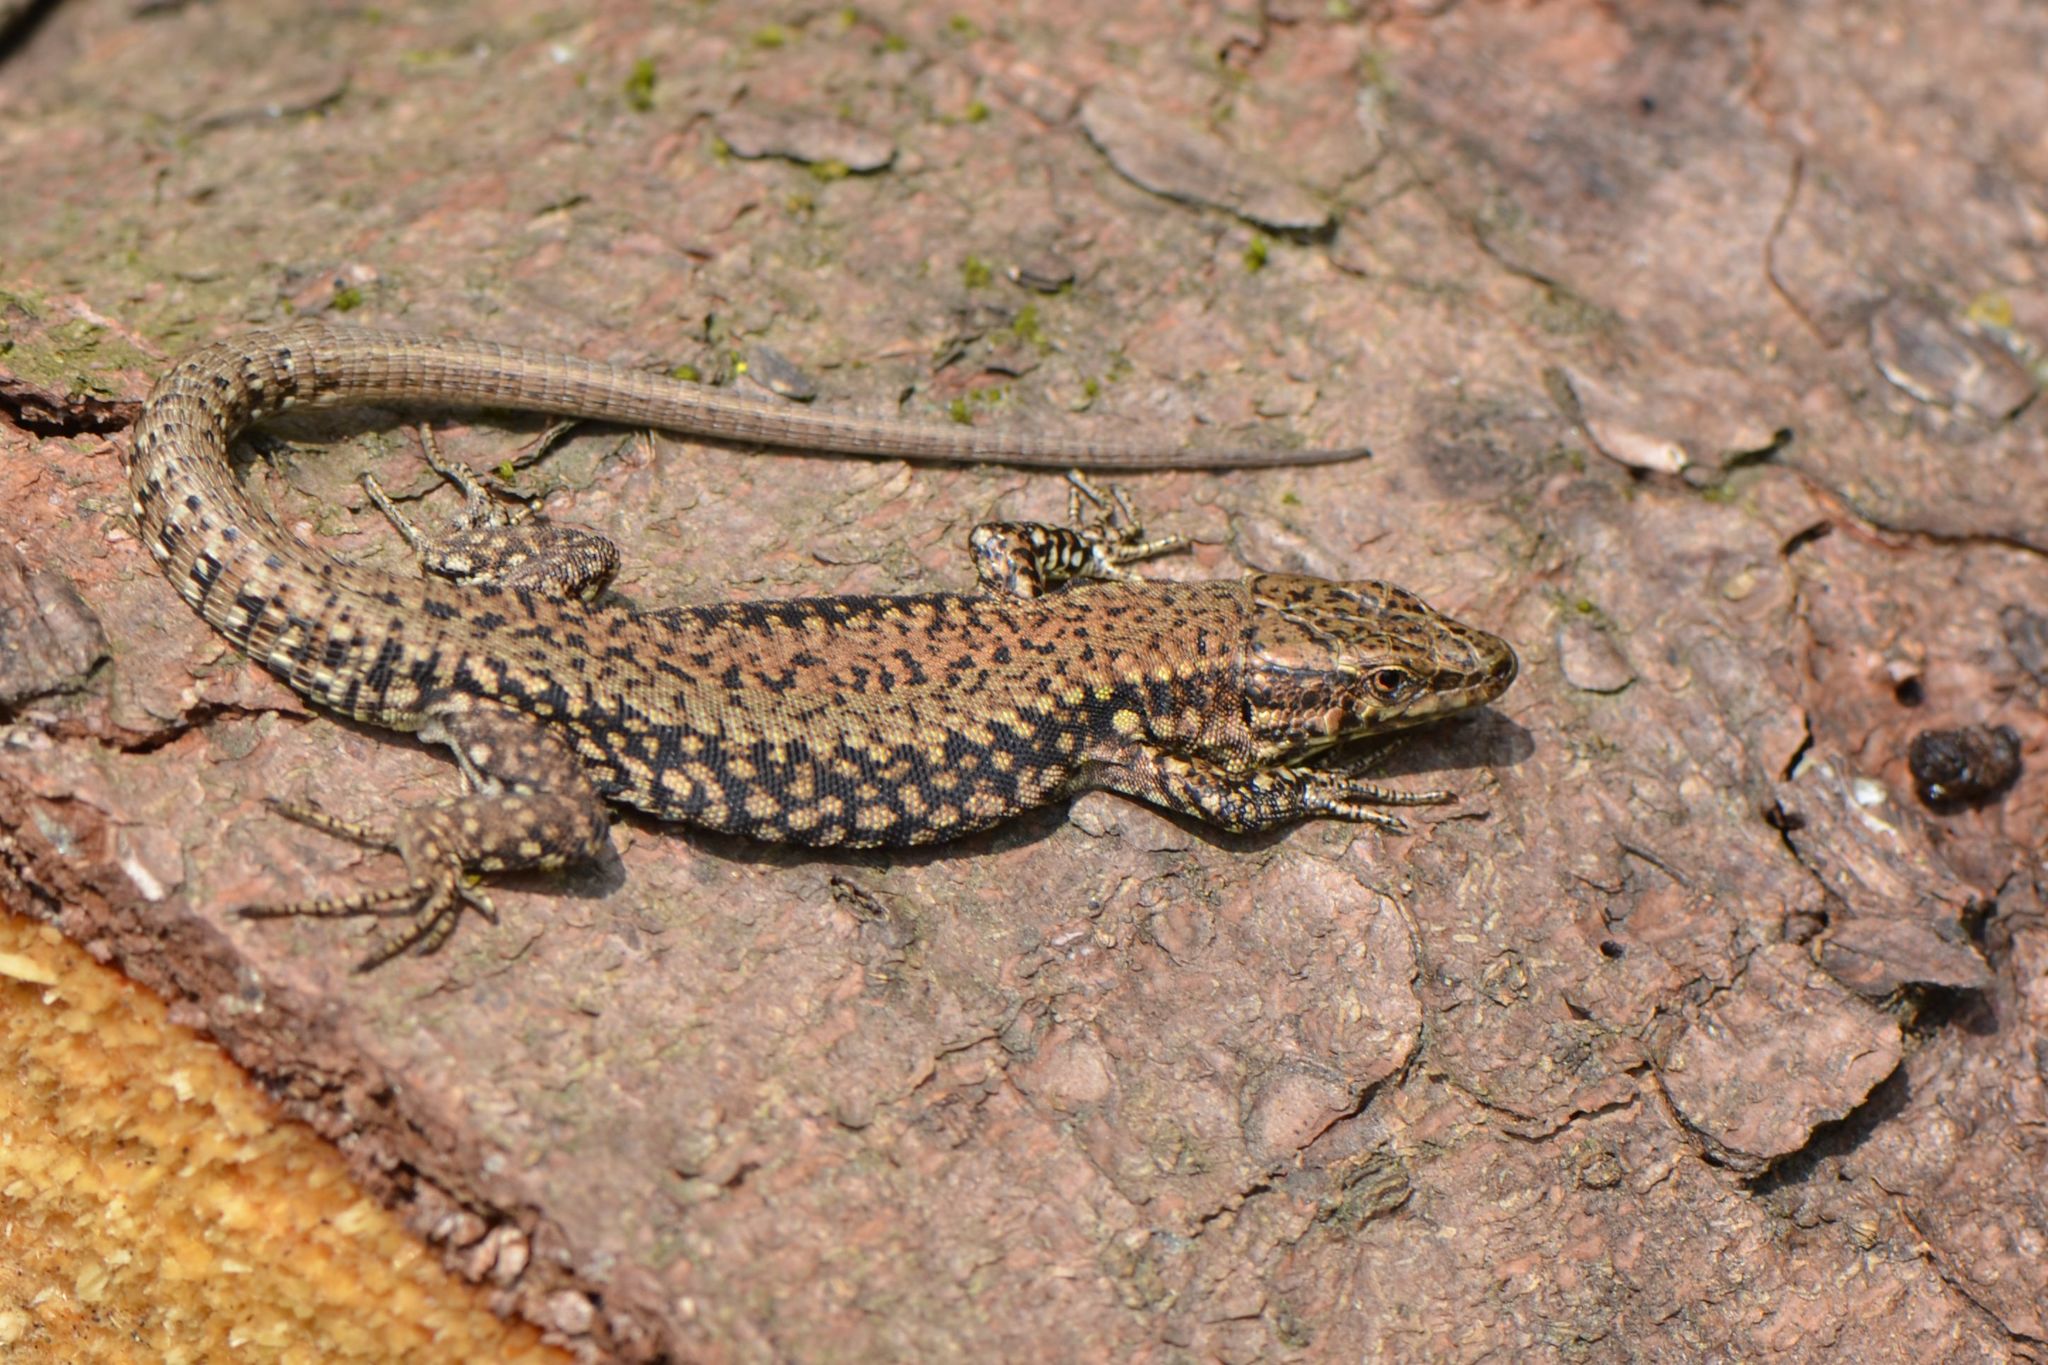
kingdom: Animalia
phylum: Chordata
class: Squamata
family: Lacertidae
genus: Podarcis
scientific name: Podarcis muralis
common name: Common wall lizard
